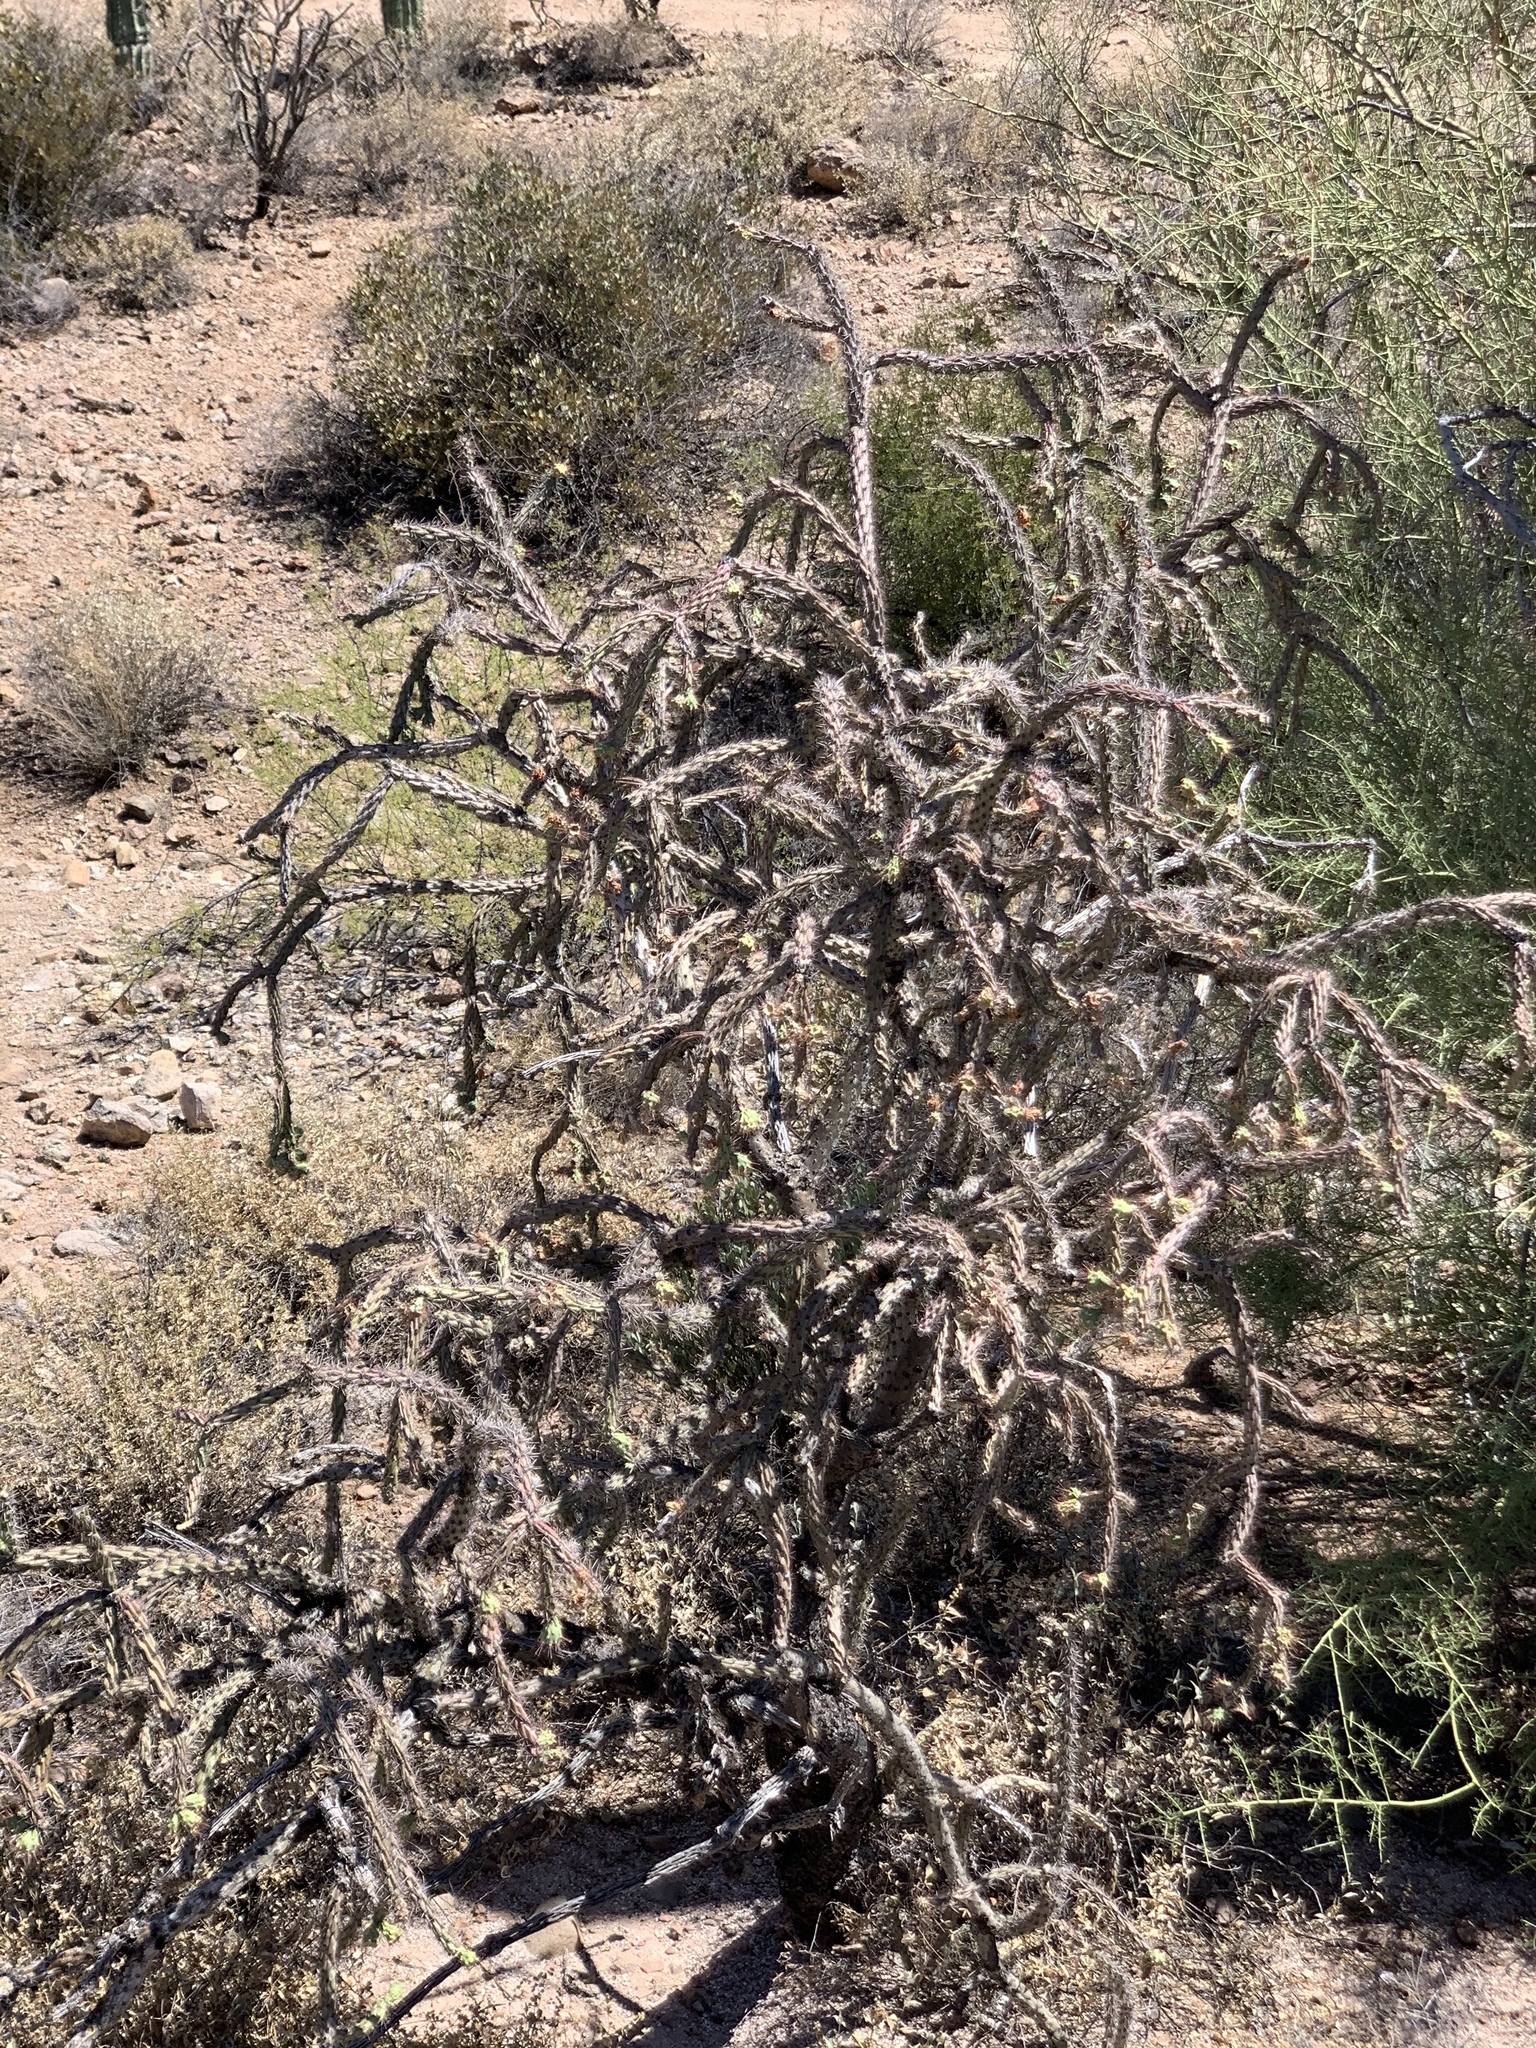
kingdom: Plantae
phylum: Tracheophyta
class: Magnoliopsida
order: Caryophyllales
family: Cactaceae
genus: Cylindropuntia
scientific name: Cylindropuntia thurberi
